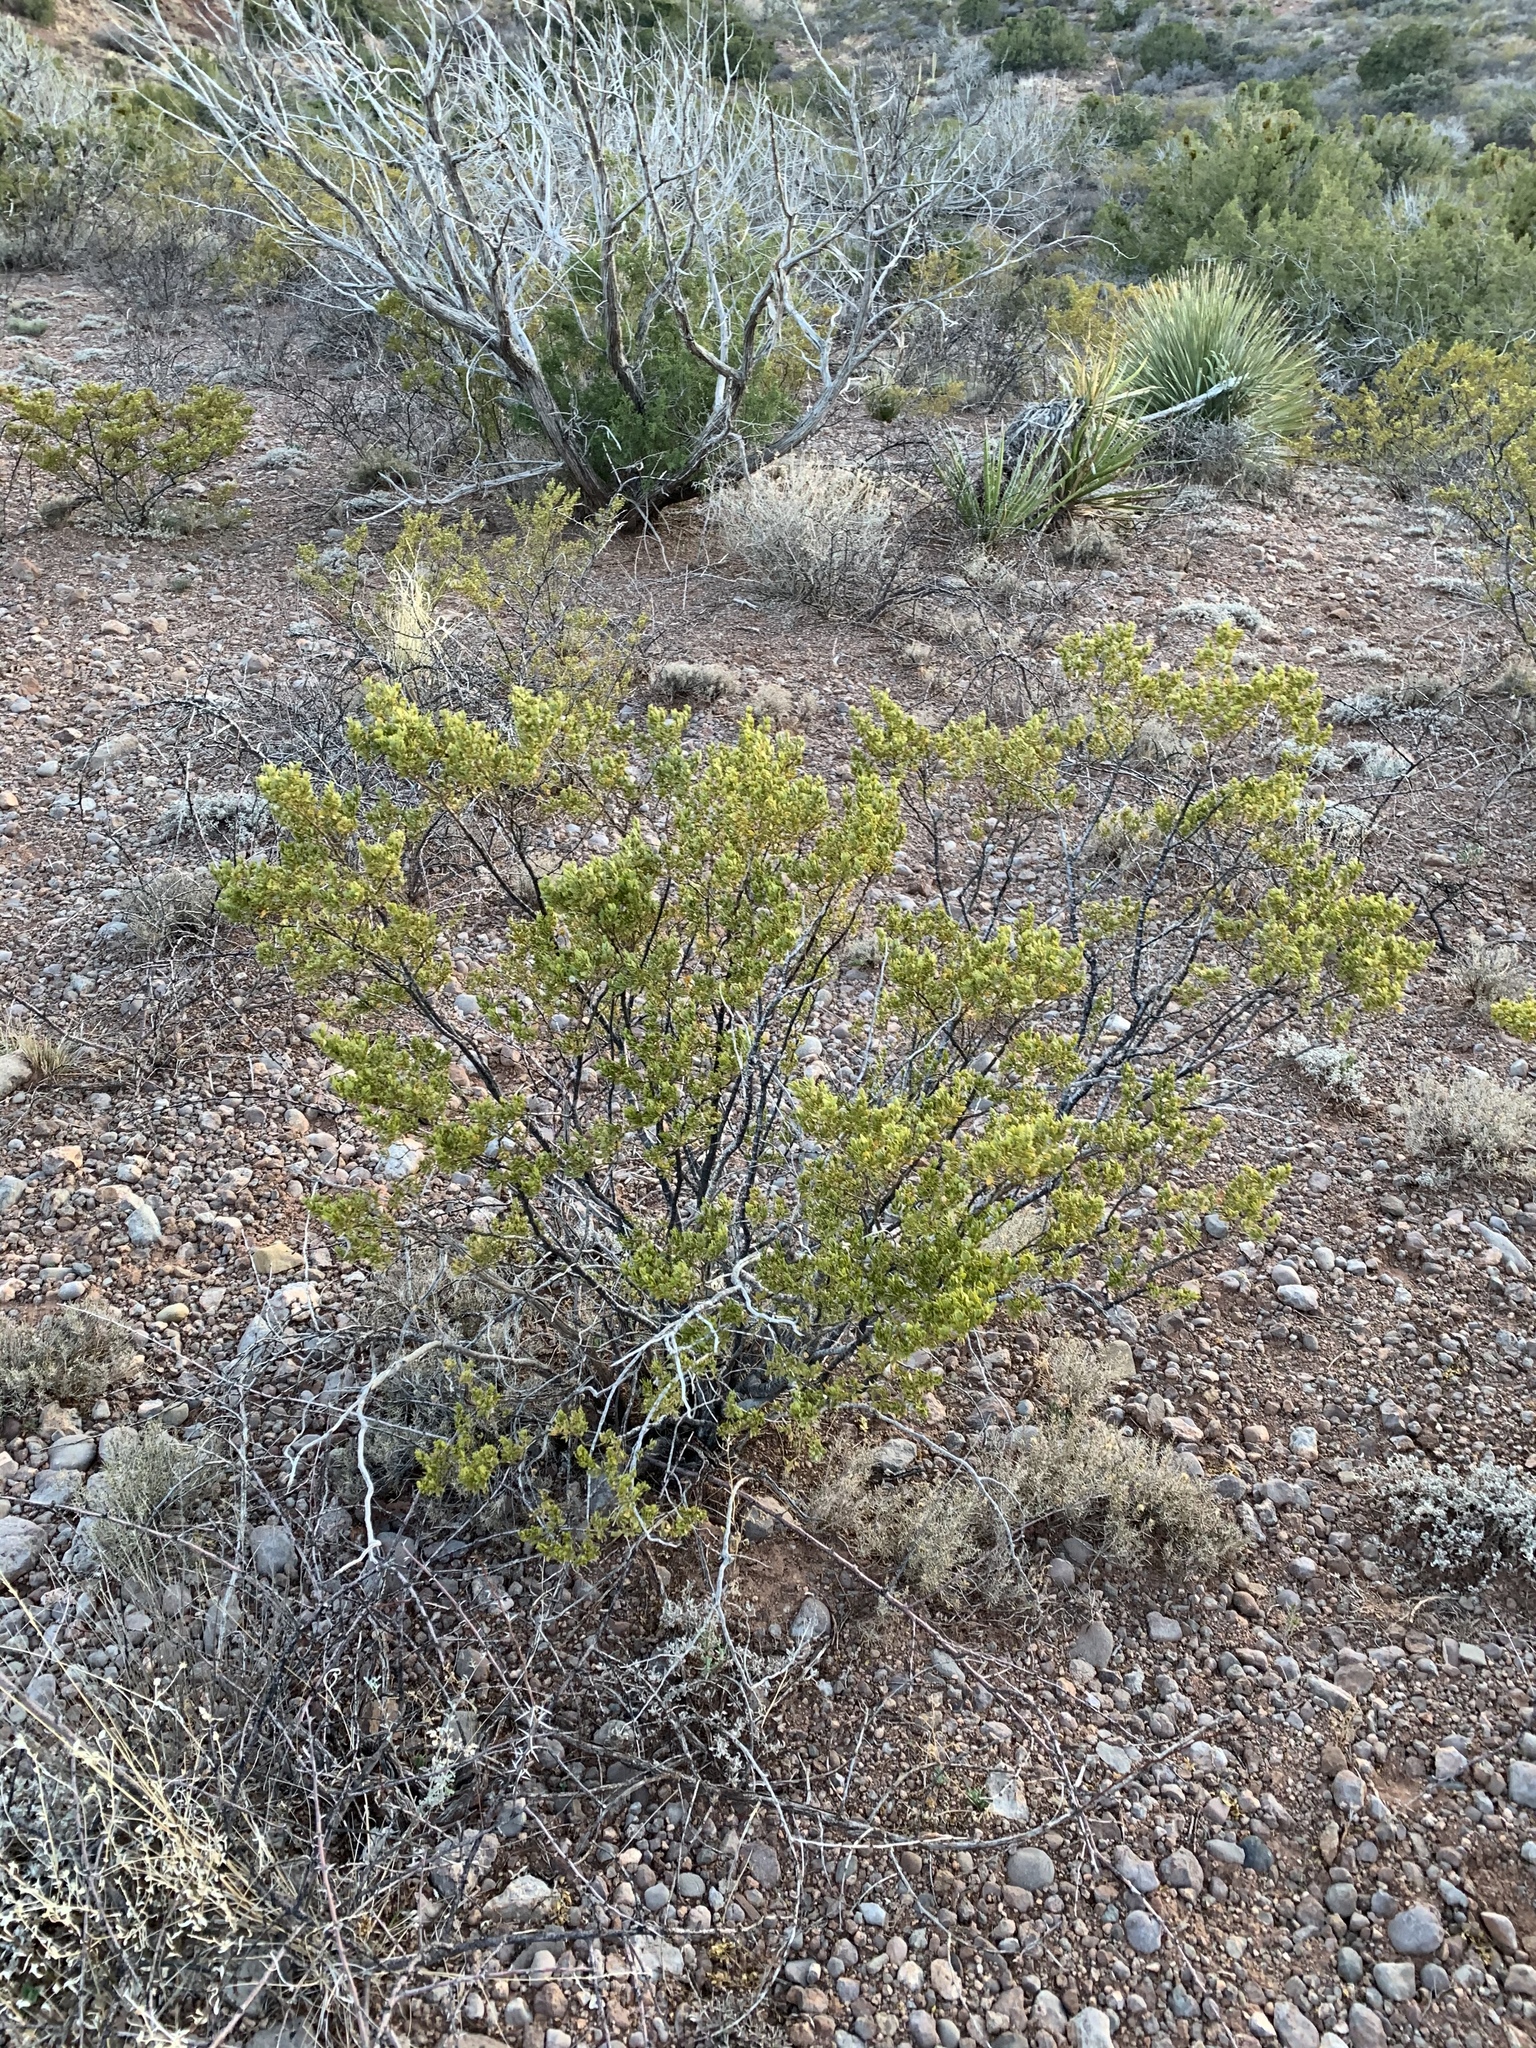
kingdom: Plantae
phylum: Tracheophyta
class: Magnoliopsida
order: Zygophyllales
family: Zygophyllaceae
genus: Larrea
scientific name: Larrea tridentata
